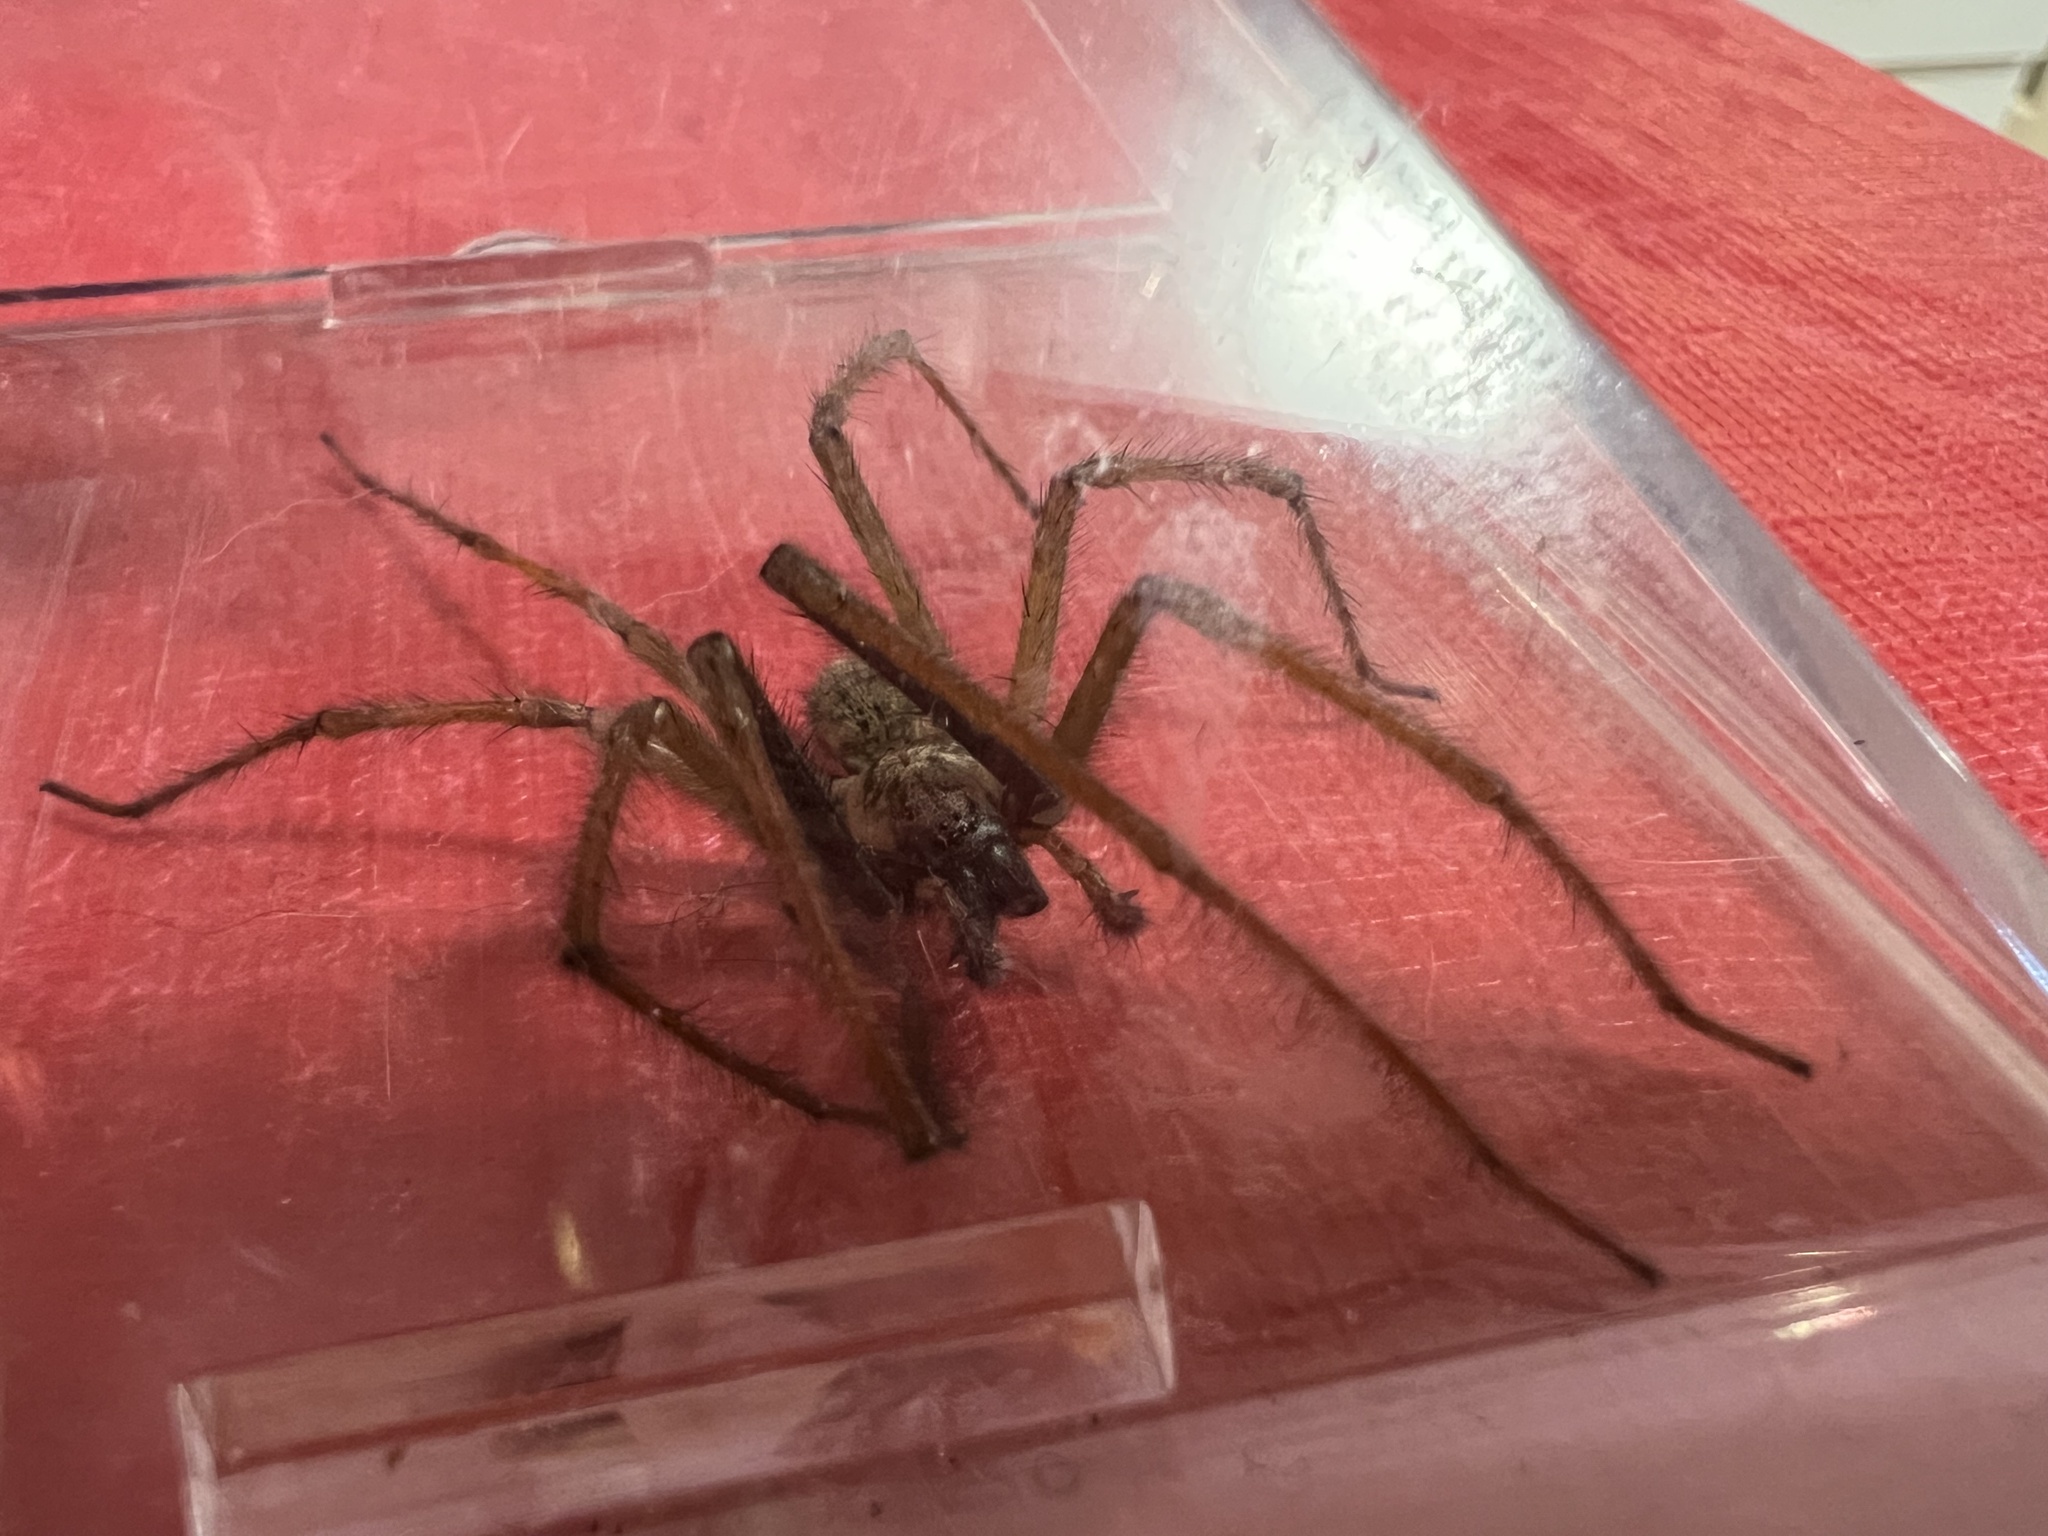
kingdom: Animalia
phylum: Arthropoda
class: Arachnida
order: Araneae
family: Agelenidae
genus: Eratigena
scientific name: Eratigena atrica
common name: Giant house spider
